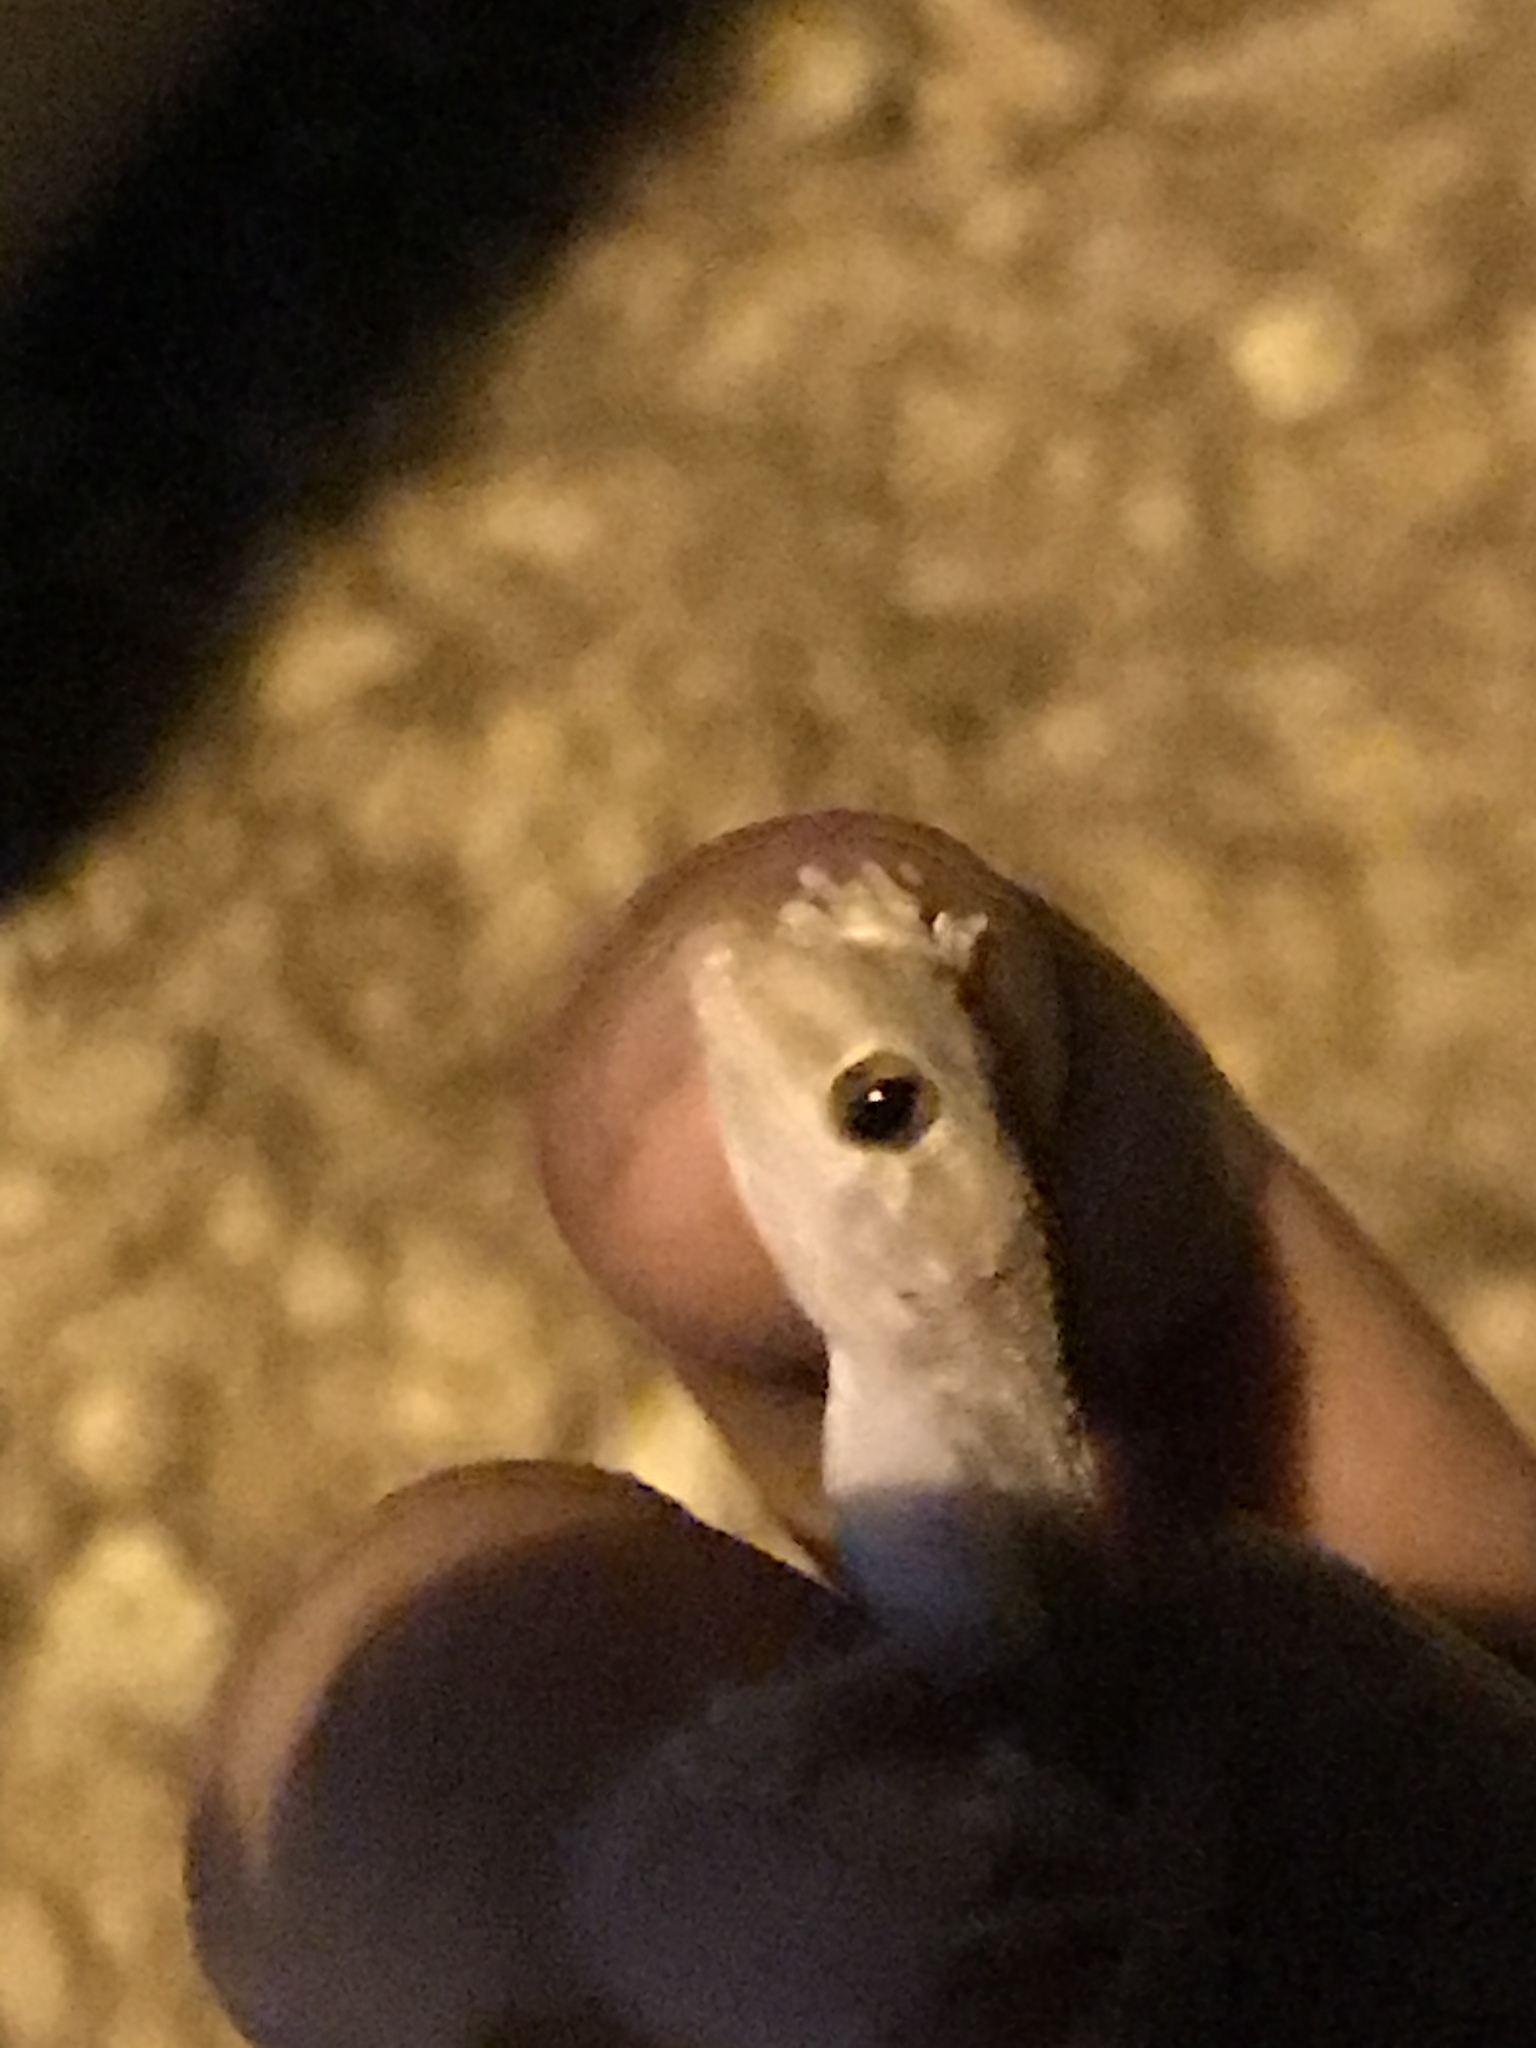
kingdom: Animalia
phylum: Chordata
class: Squamata
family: Gekkonidae
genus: Hemidactylus
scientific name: Hemidactylus turcicus
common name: Turkish gecko
